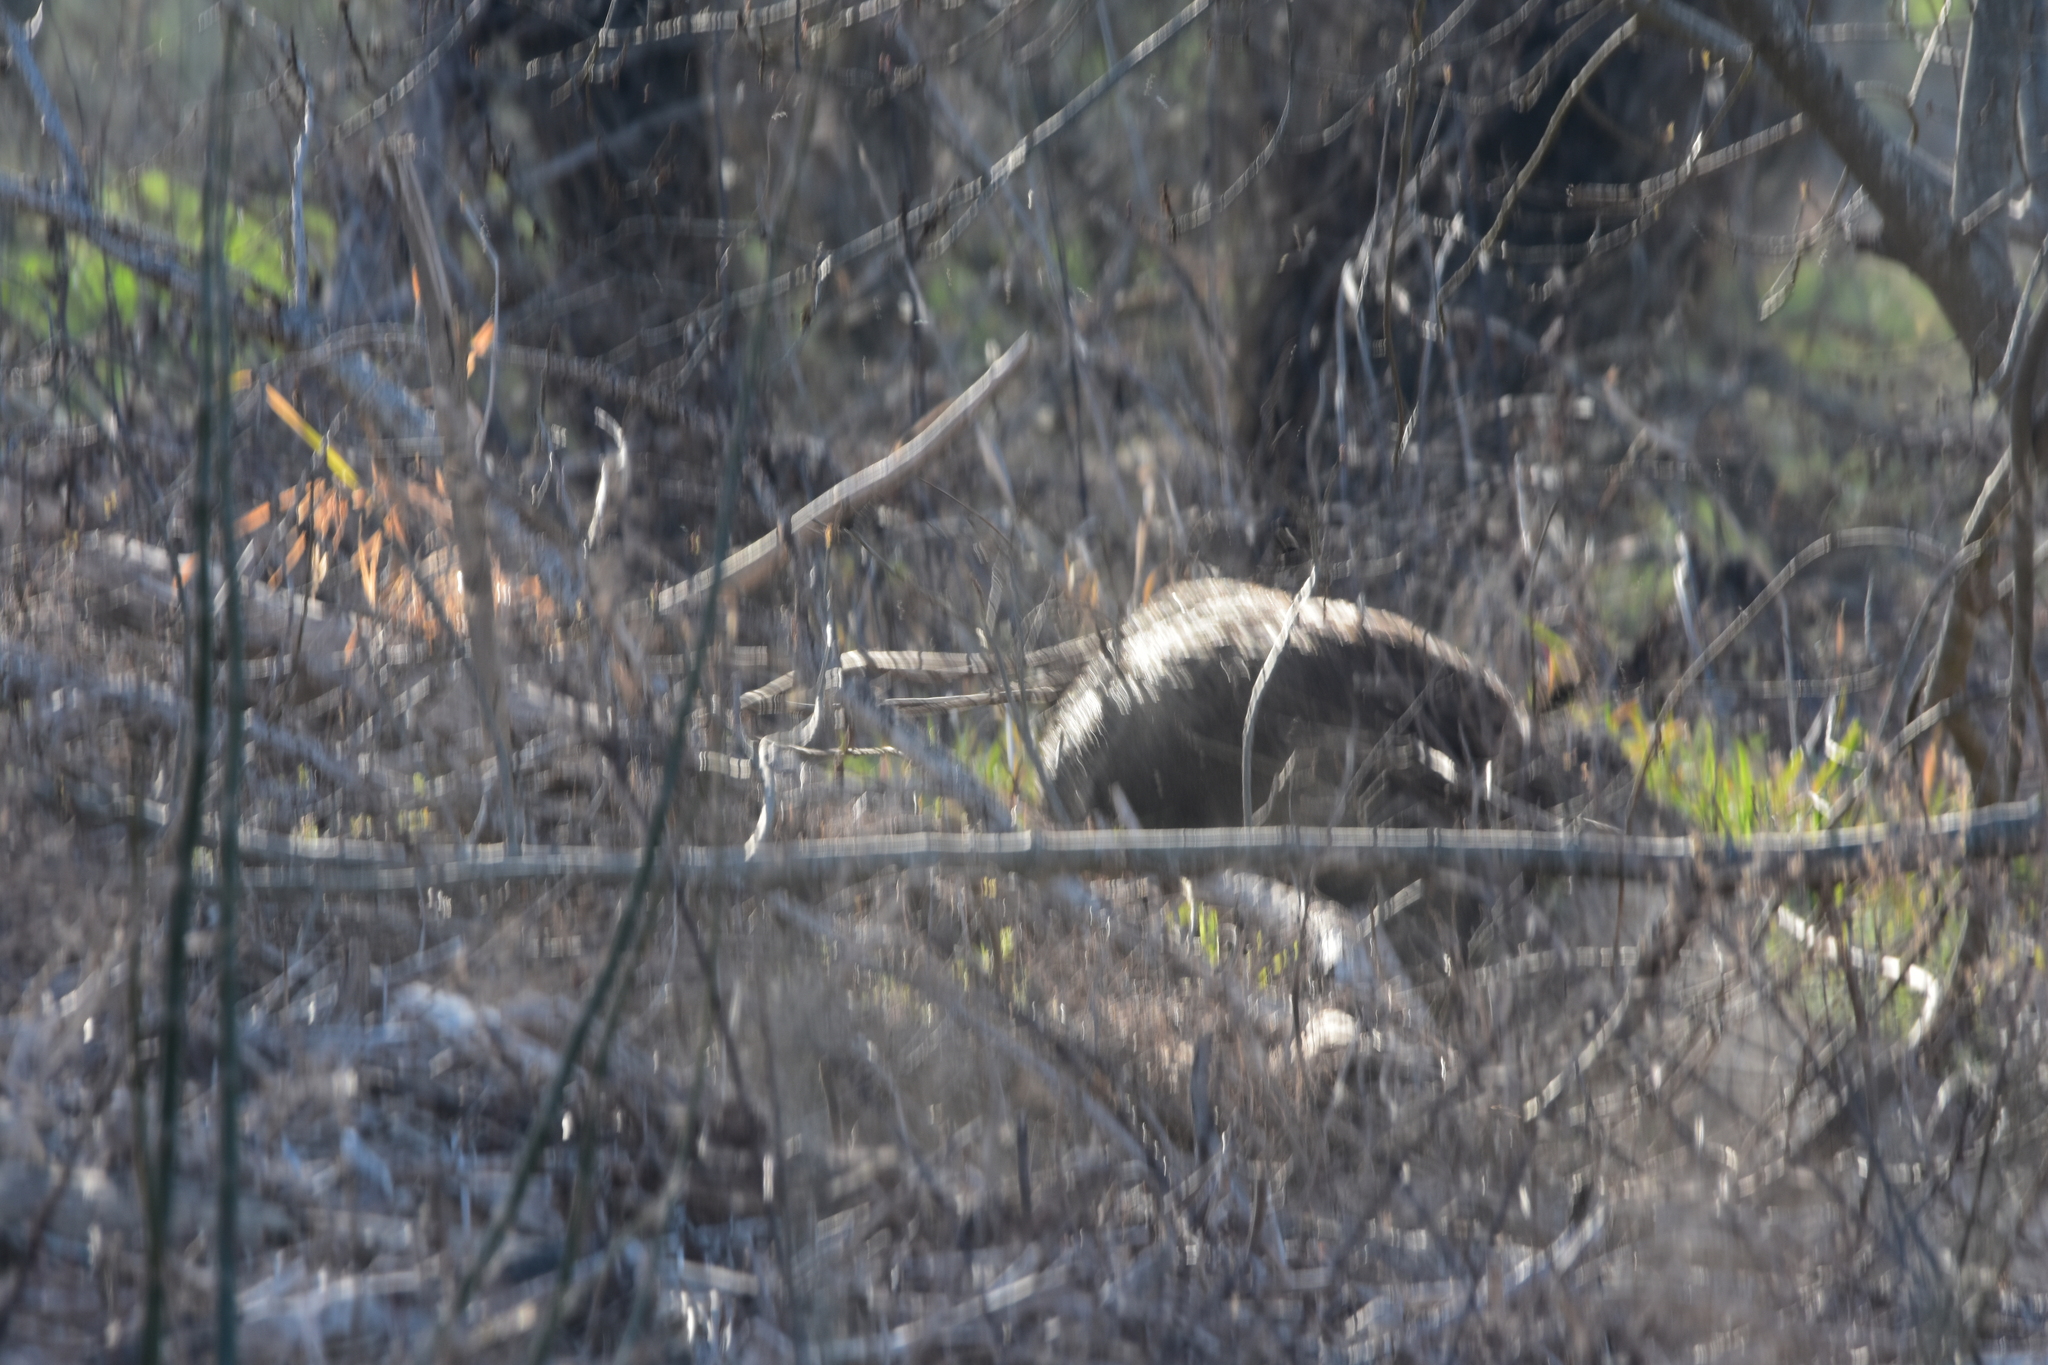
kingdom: Animalia
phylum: Chordata
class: Mammalia
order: Artiodactyla
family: Suidae
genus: Sus
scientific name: Sus scrofa
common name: Wild boar
